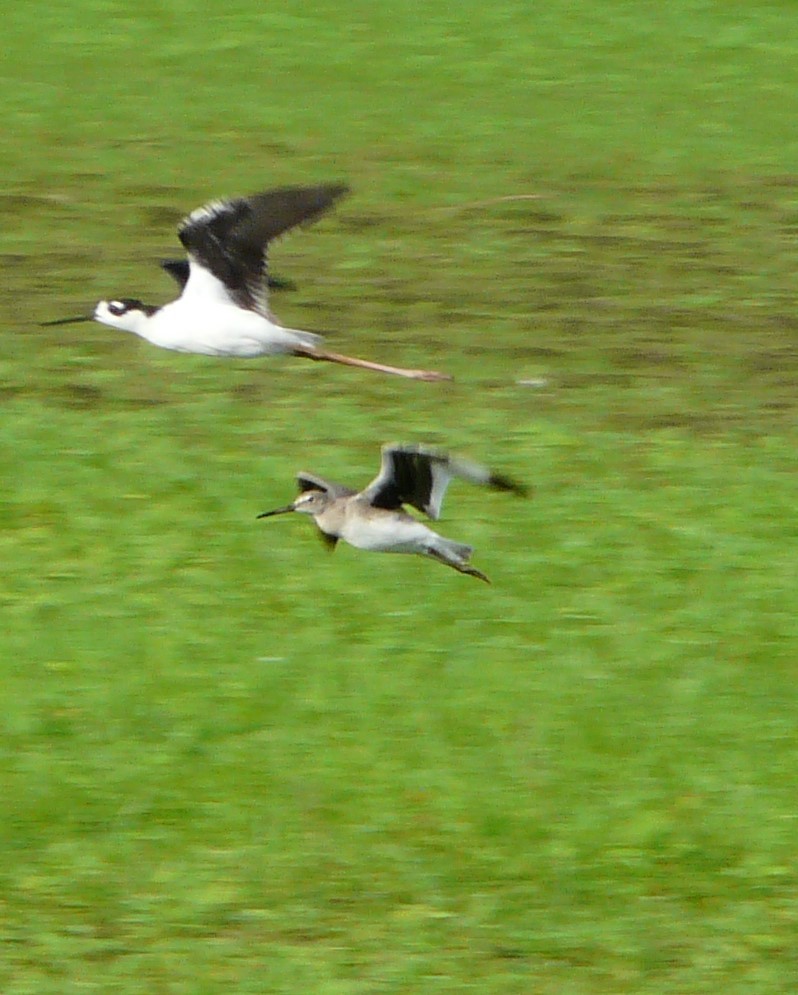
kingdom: Animalia
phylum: Chordata
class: Aves
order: Charadriiformes
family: Scolopacidae
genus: Tringa
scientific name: Tringa semipalmata
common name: Willet
